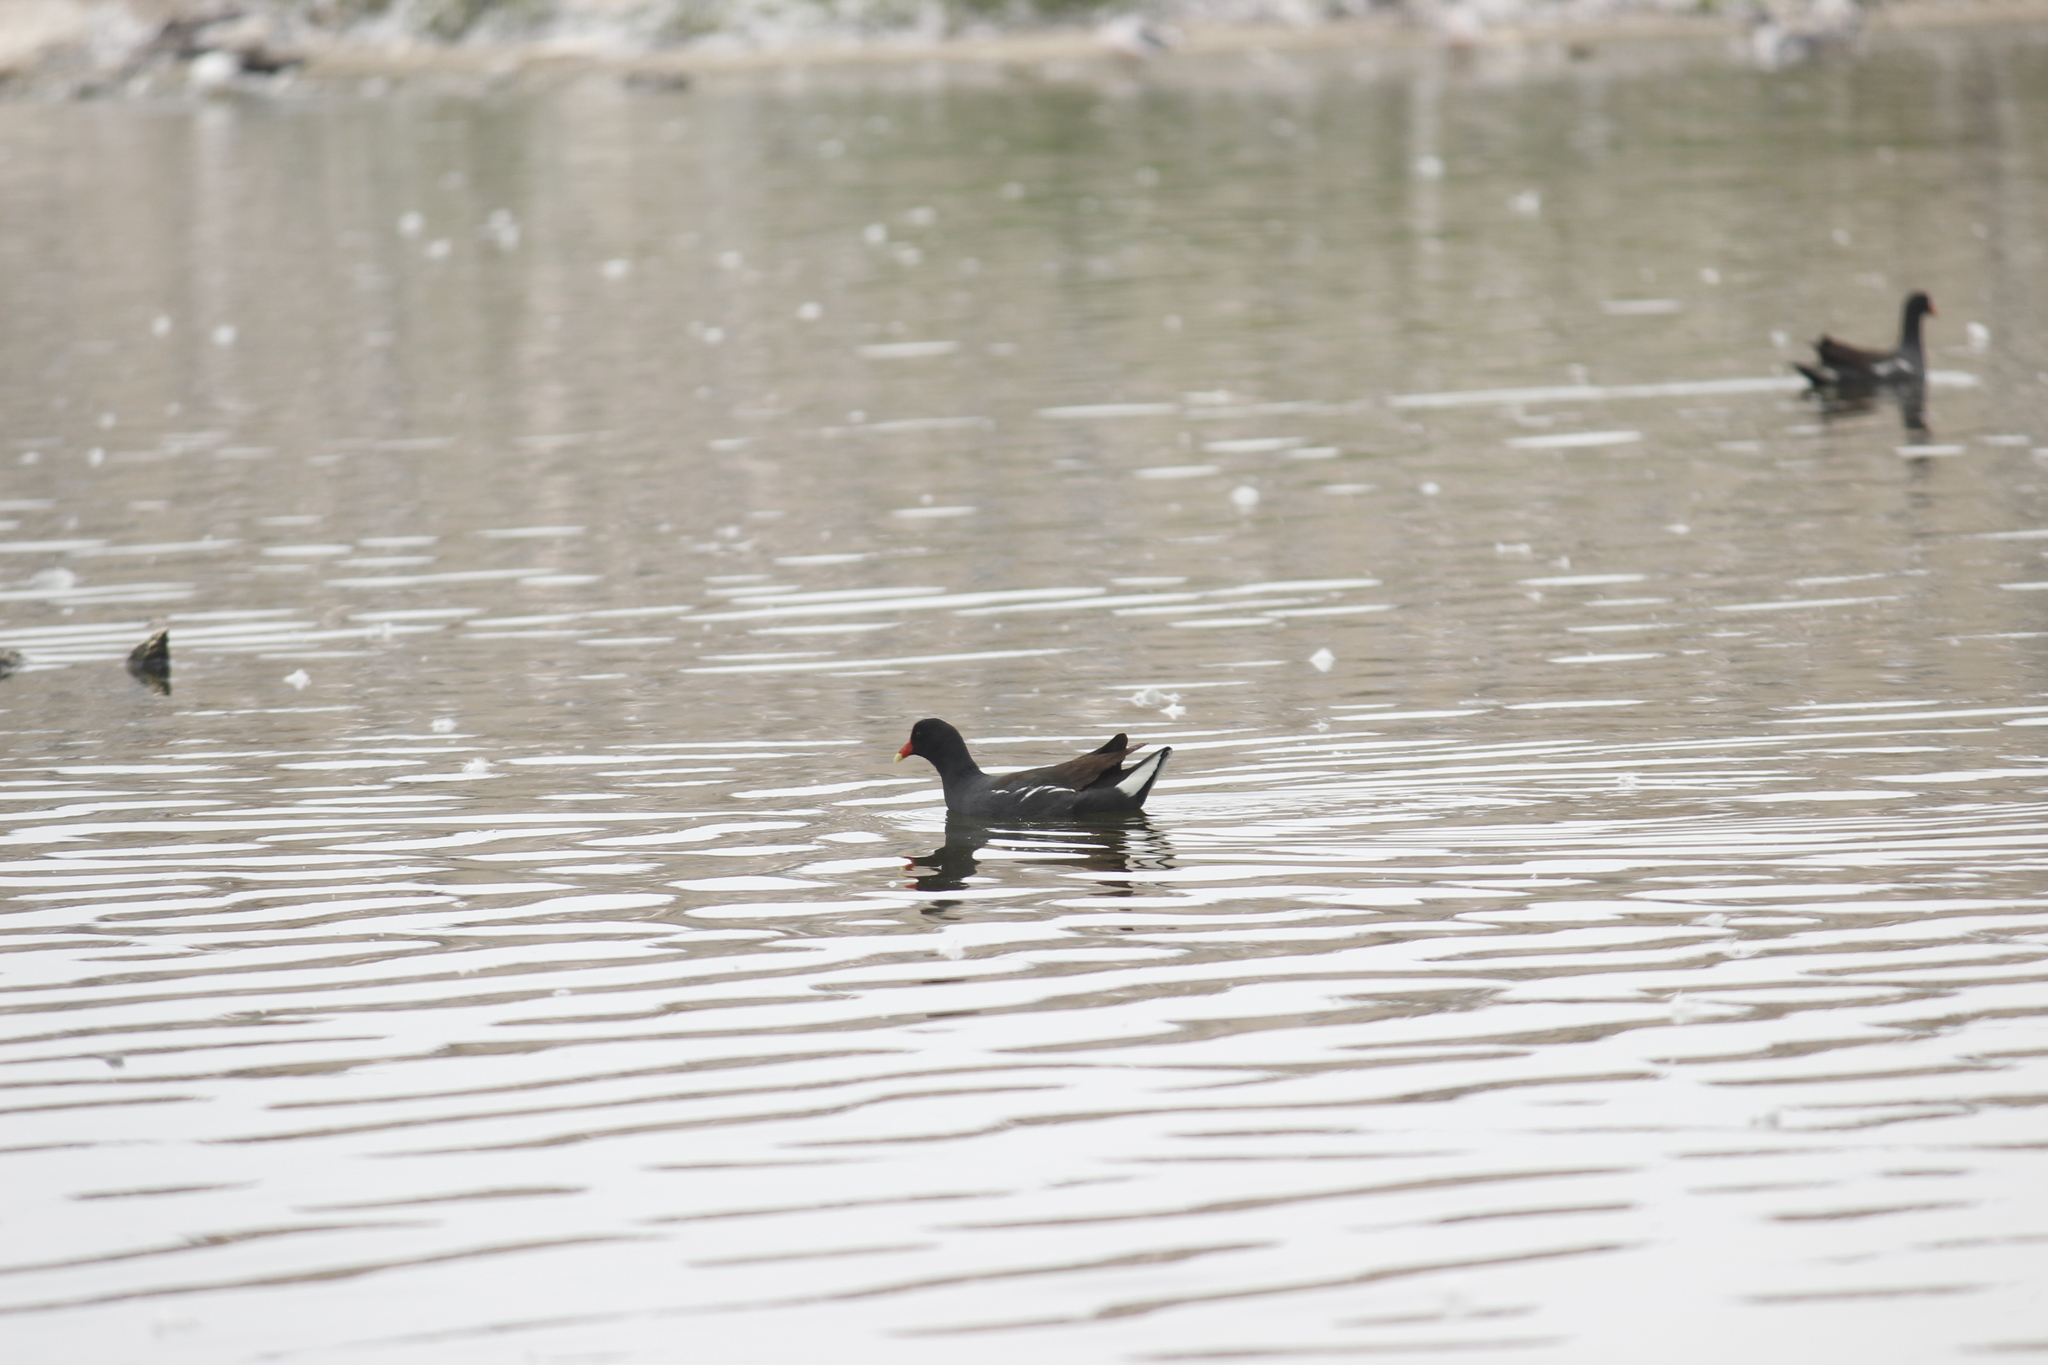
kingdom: Animalia
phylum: Chordata
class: Aves
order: Gruiformes
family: Rallidae
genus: Gallinula
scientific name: Gallinula chloropus
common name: Common moorhen
